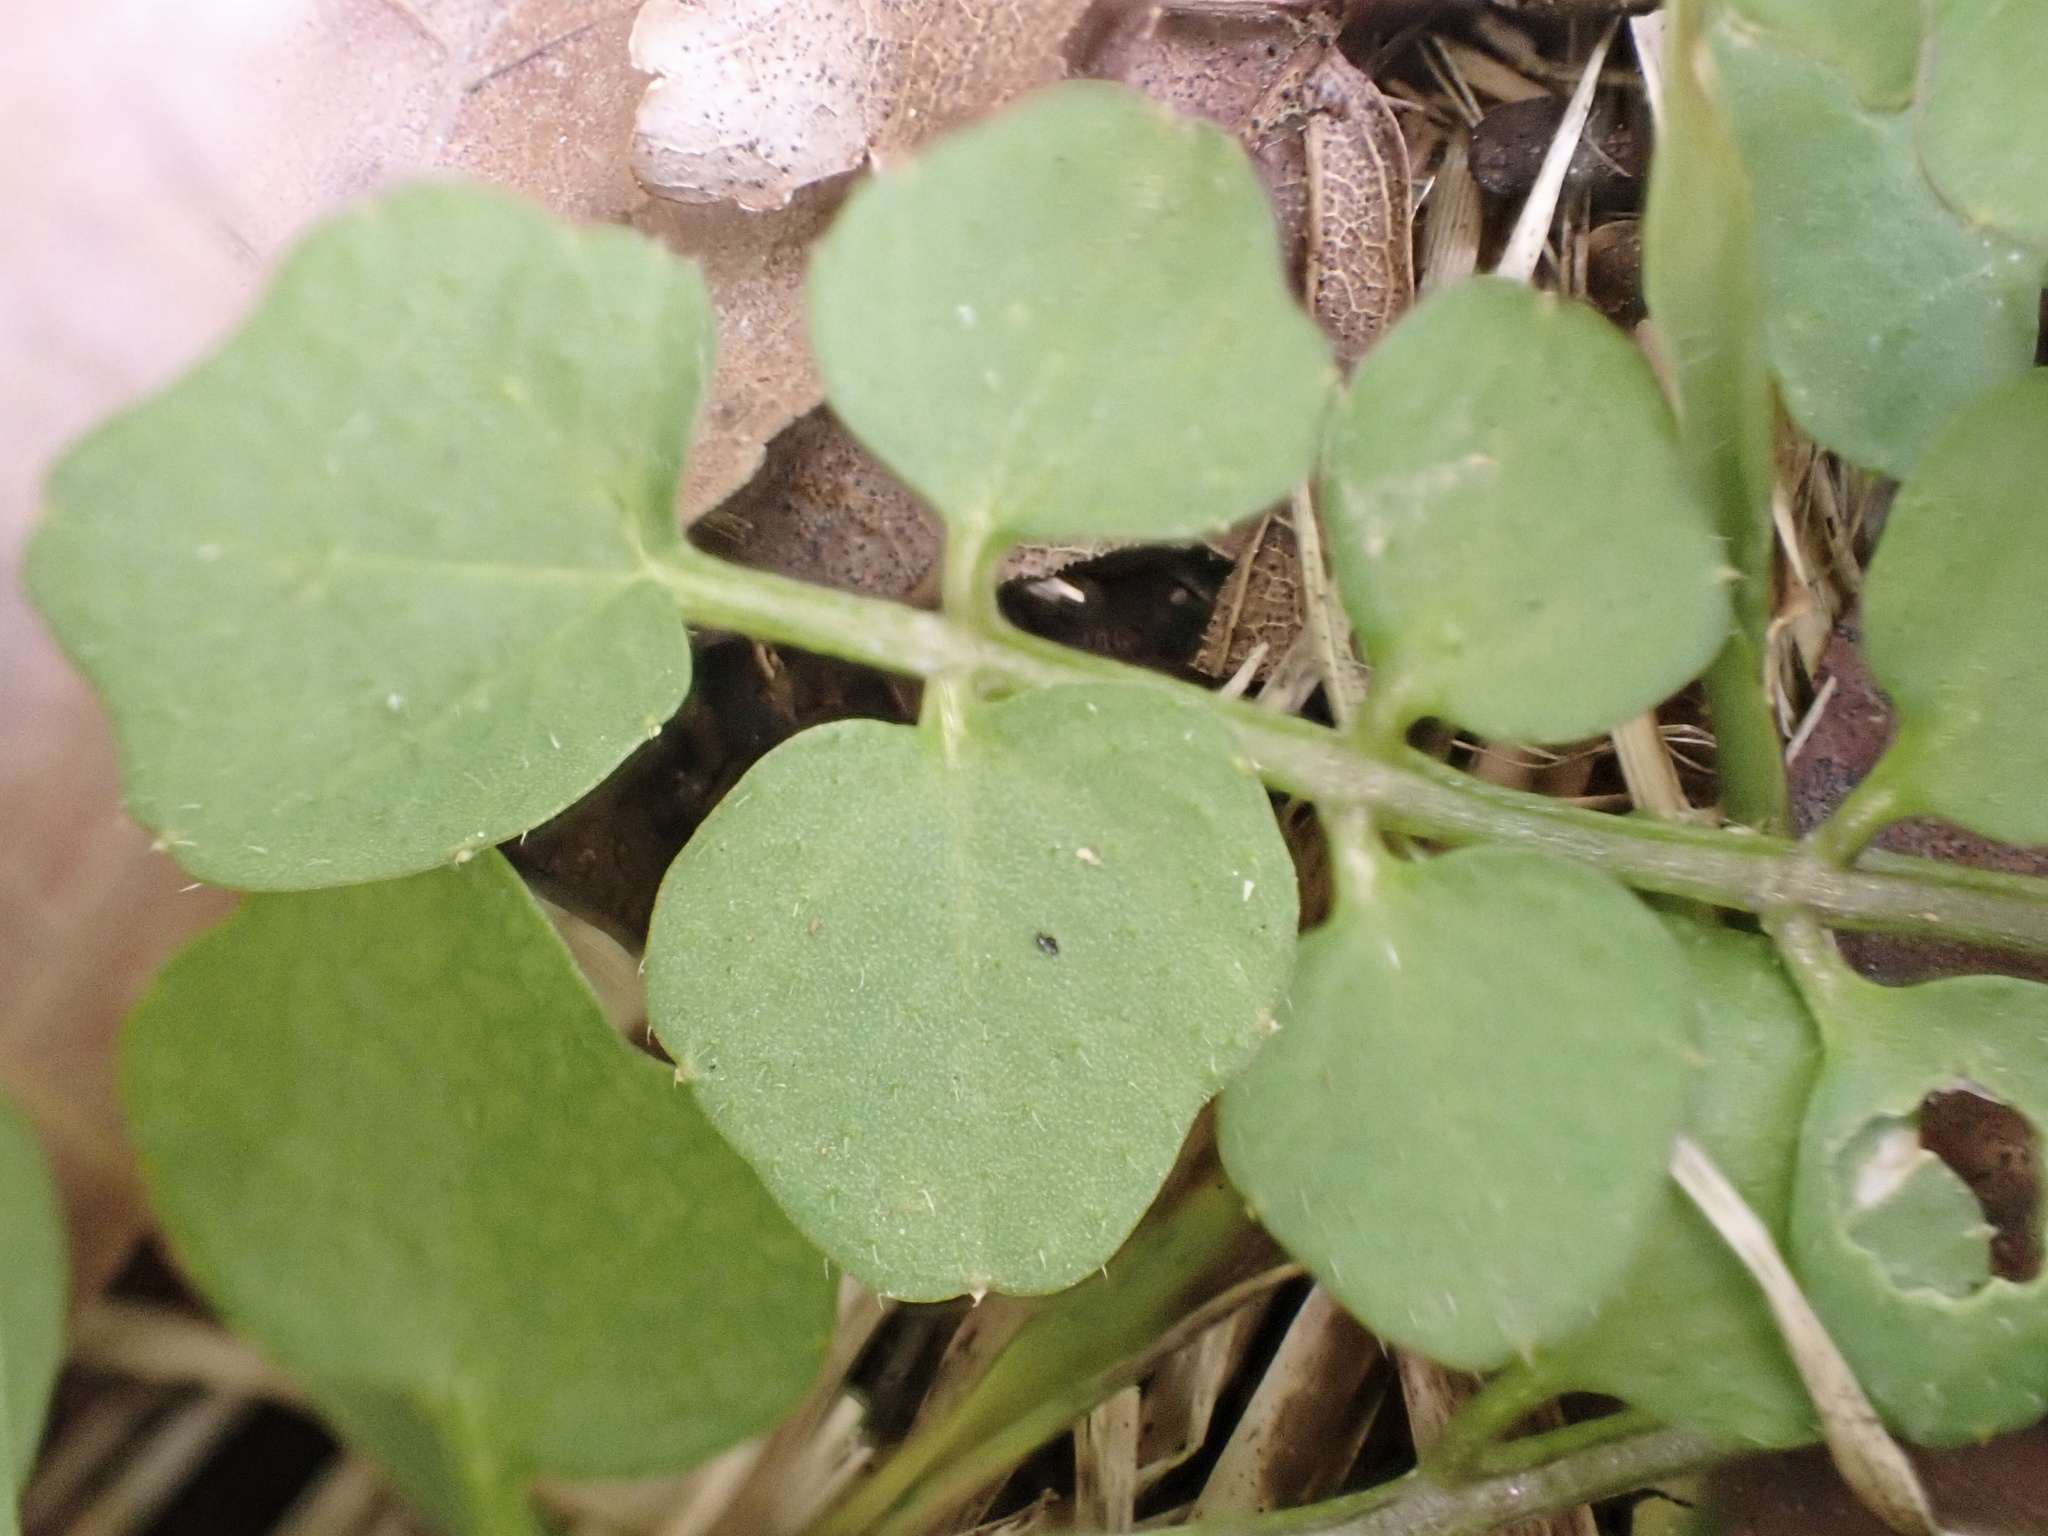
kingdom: Plantae
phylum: Tracheophyta
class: Magnoliopsida
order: Brassicales
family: Brassicaceae
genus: Cardamine
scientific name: Cardamine hirsuta
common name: Hairy bittercress
